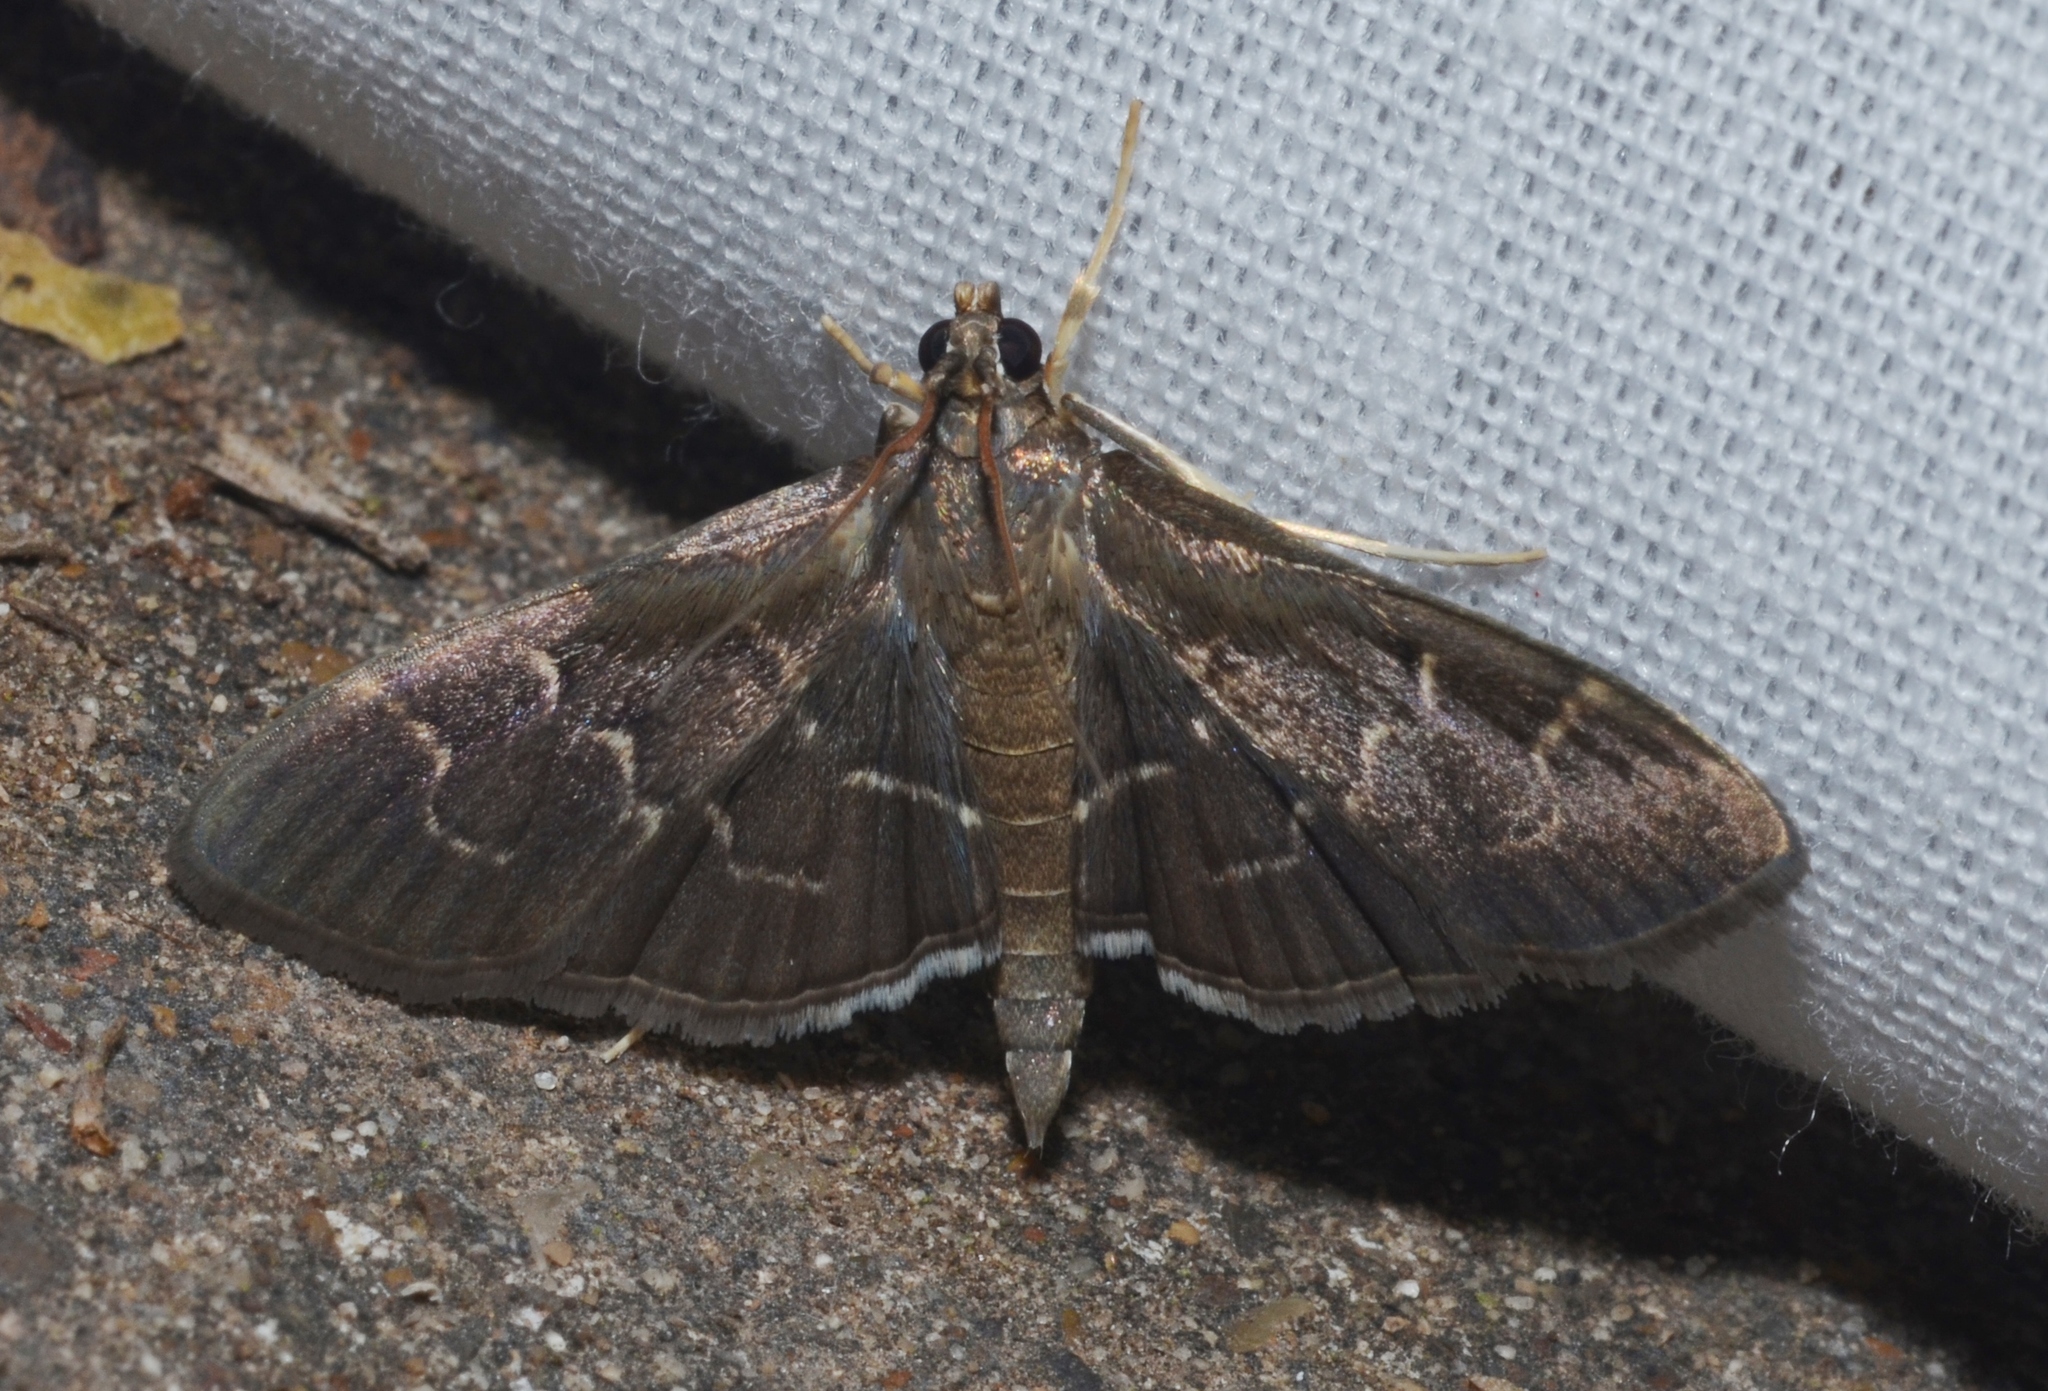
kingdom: Animalia
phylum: Arthropoda
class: Insecta
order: Lepidoptera
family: Crambidae
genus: Pilocrocis
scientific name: Pilocrocis ramentalis
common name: Scraped pilocrocis
